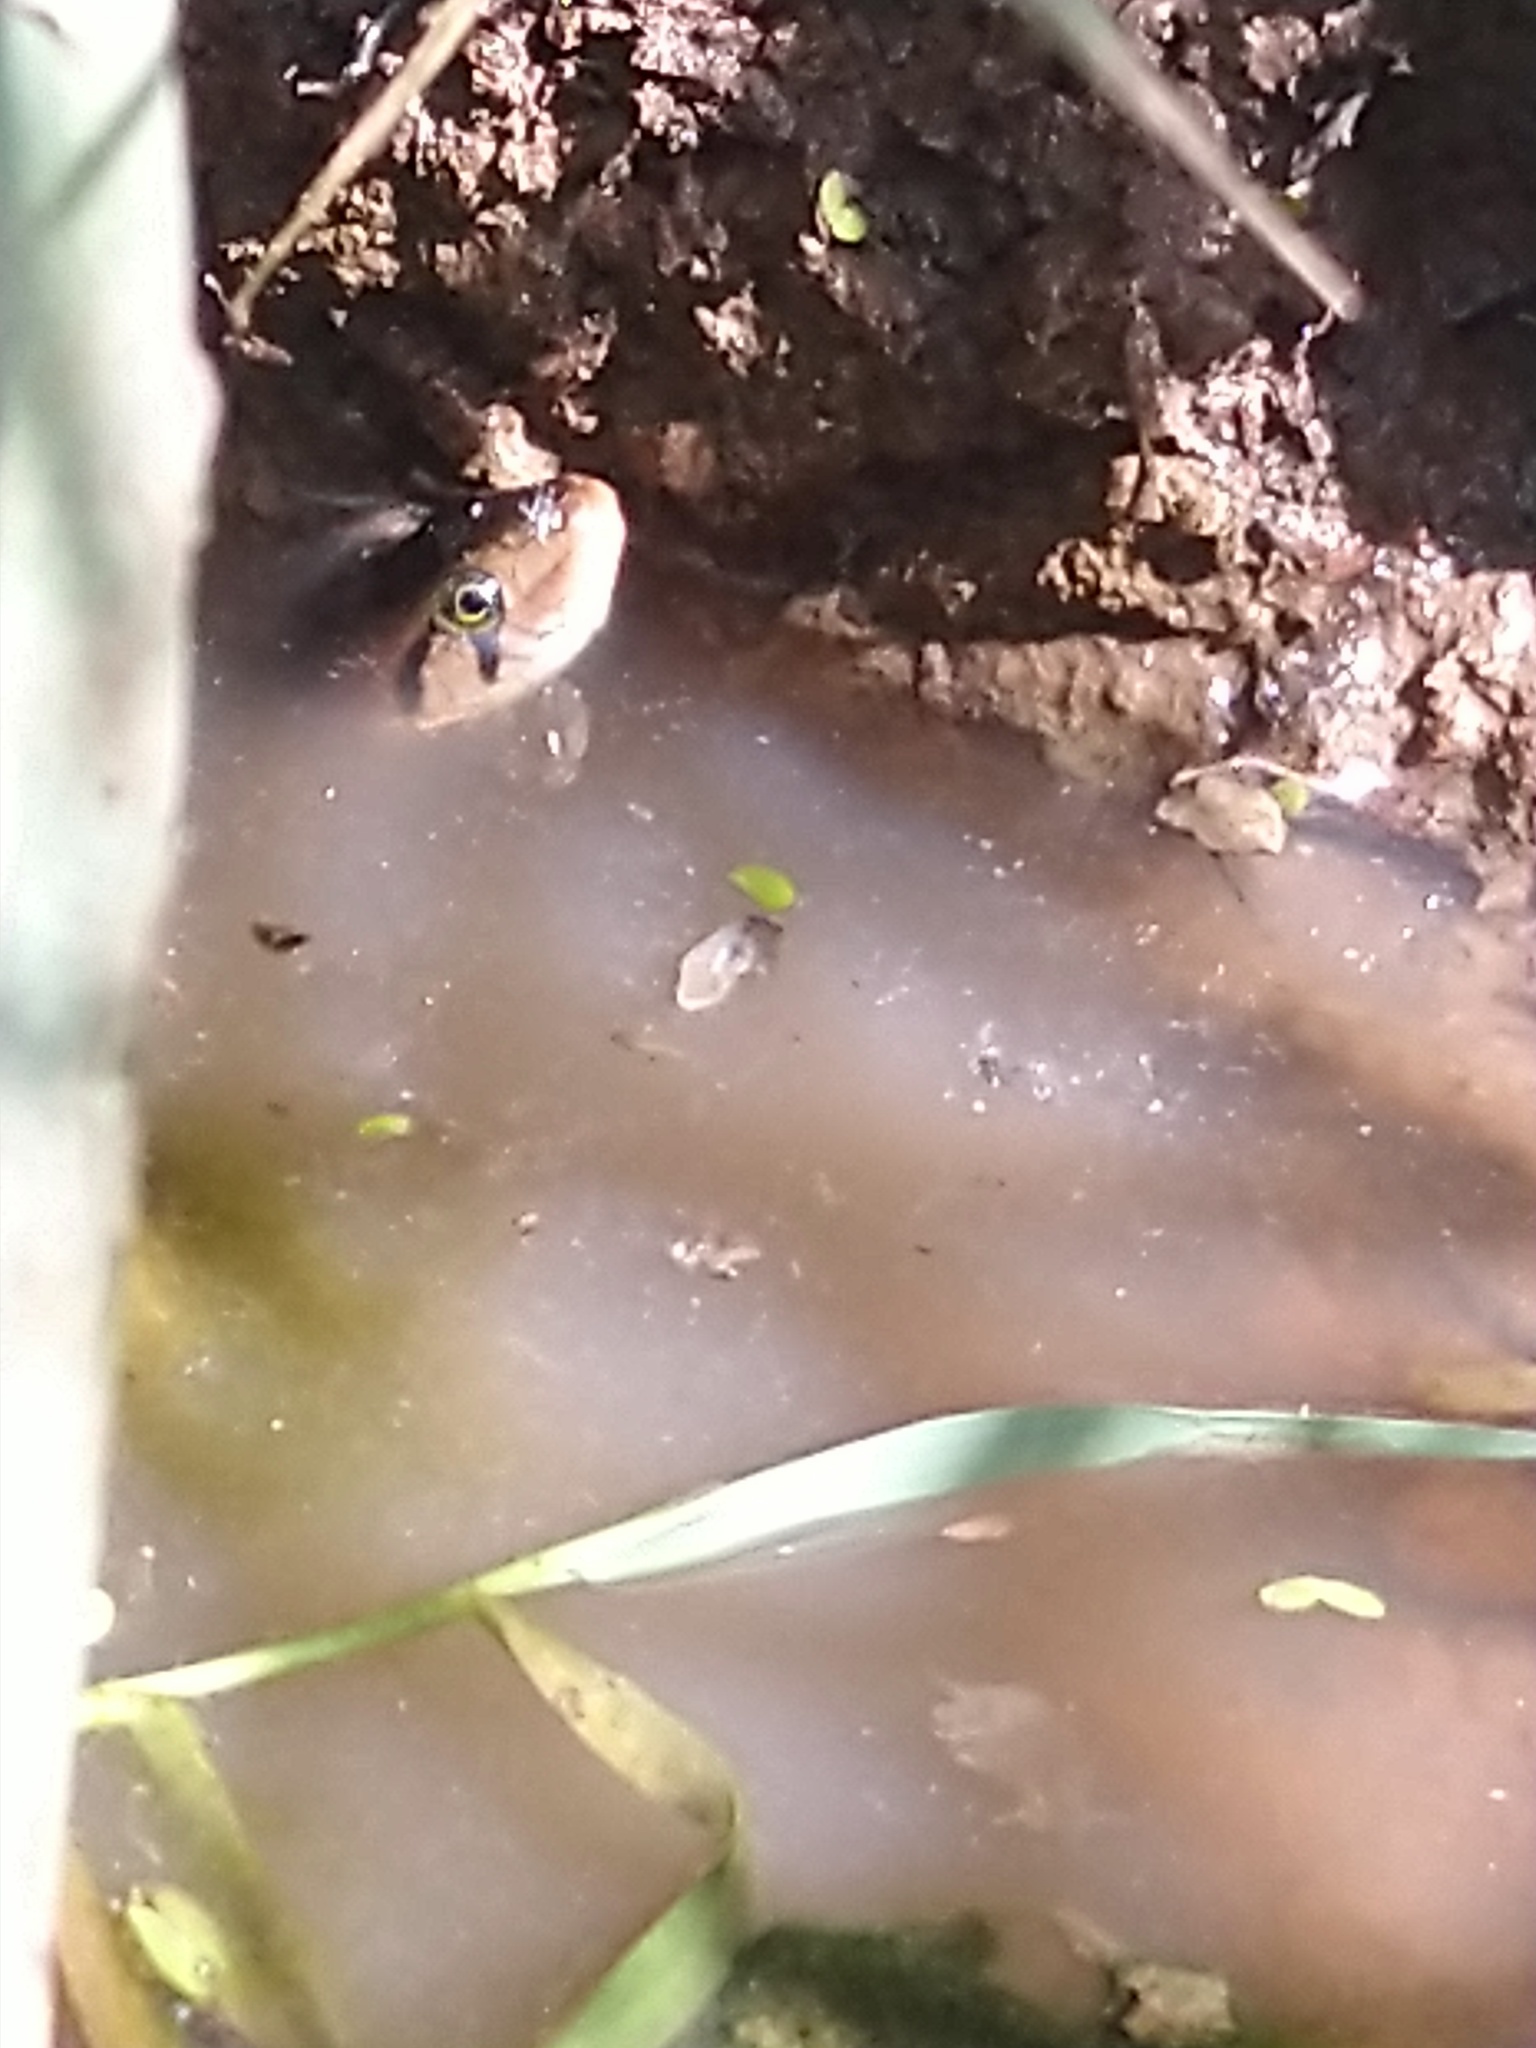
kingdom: Animalia
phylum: Chordata
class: Squamata
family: Colubridae
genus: Fowlea
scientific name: Fowlea piscator
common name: Asiatic water snake
